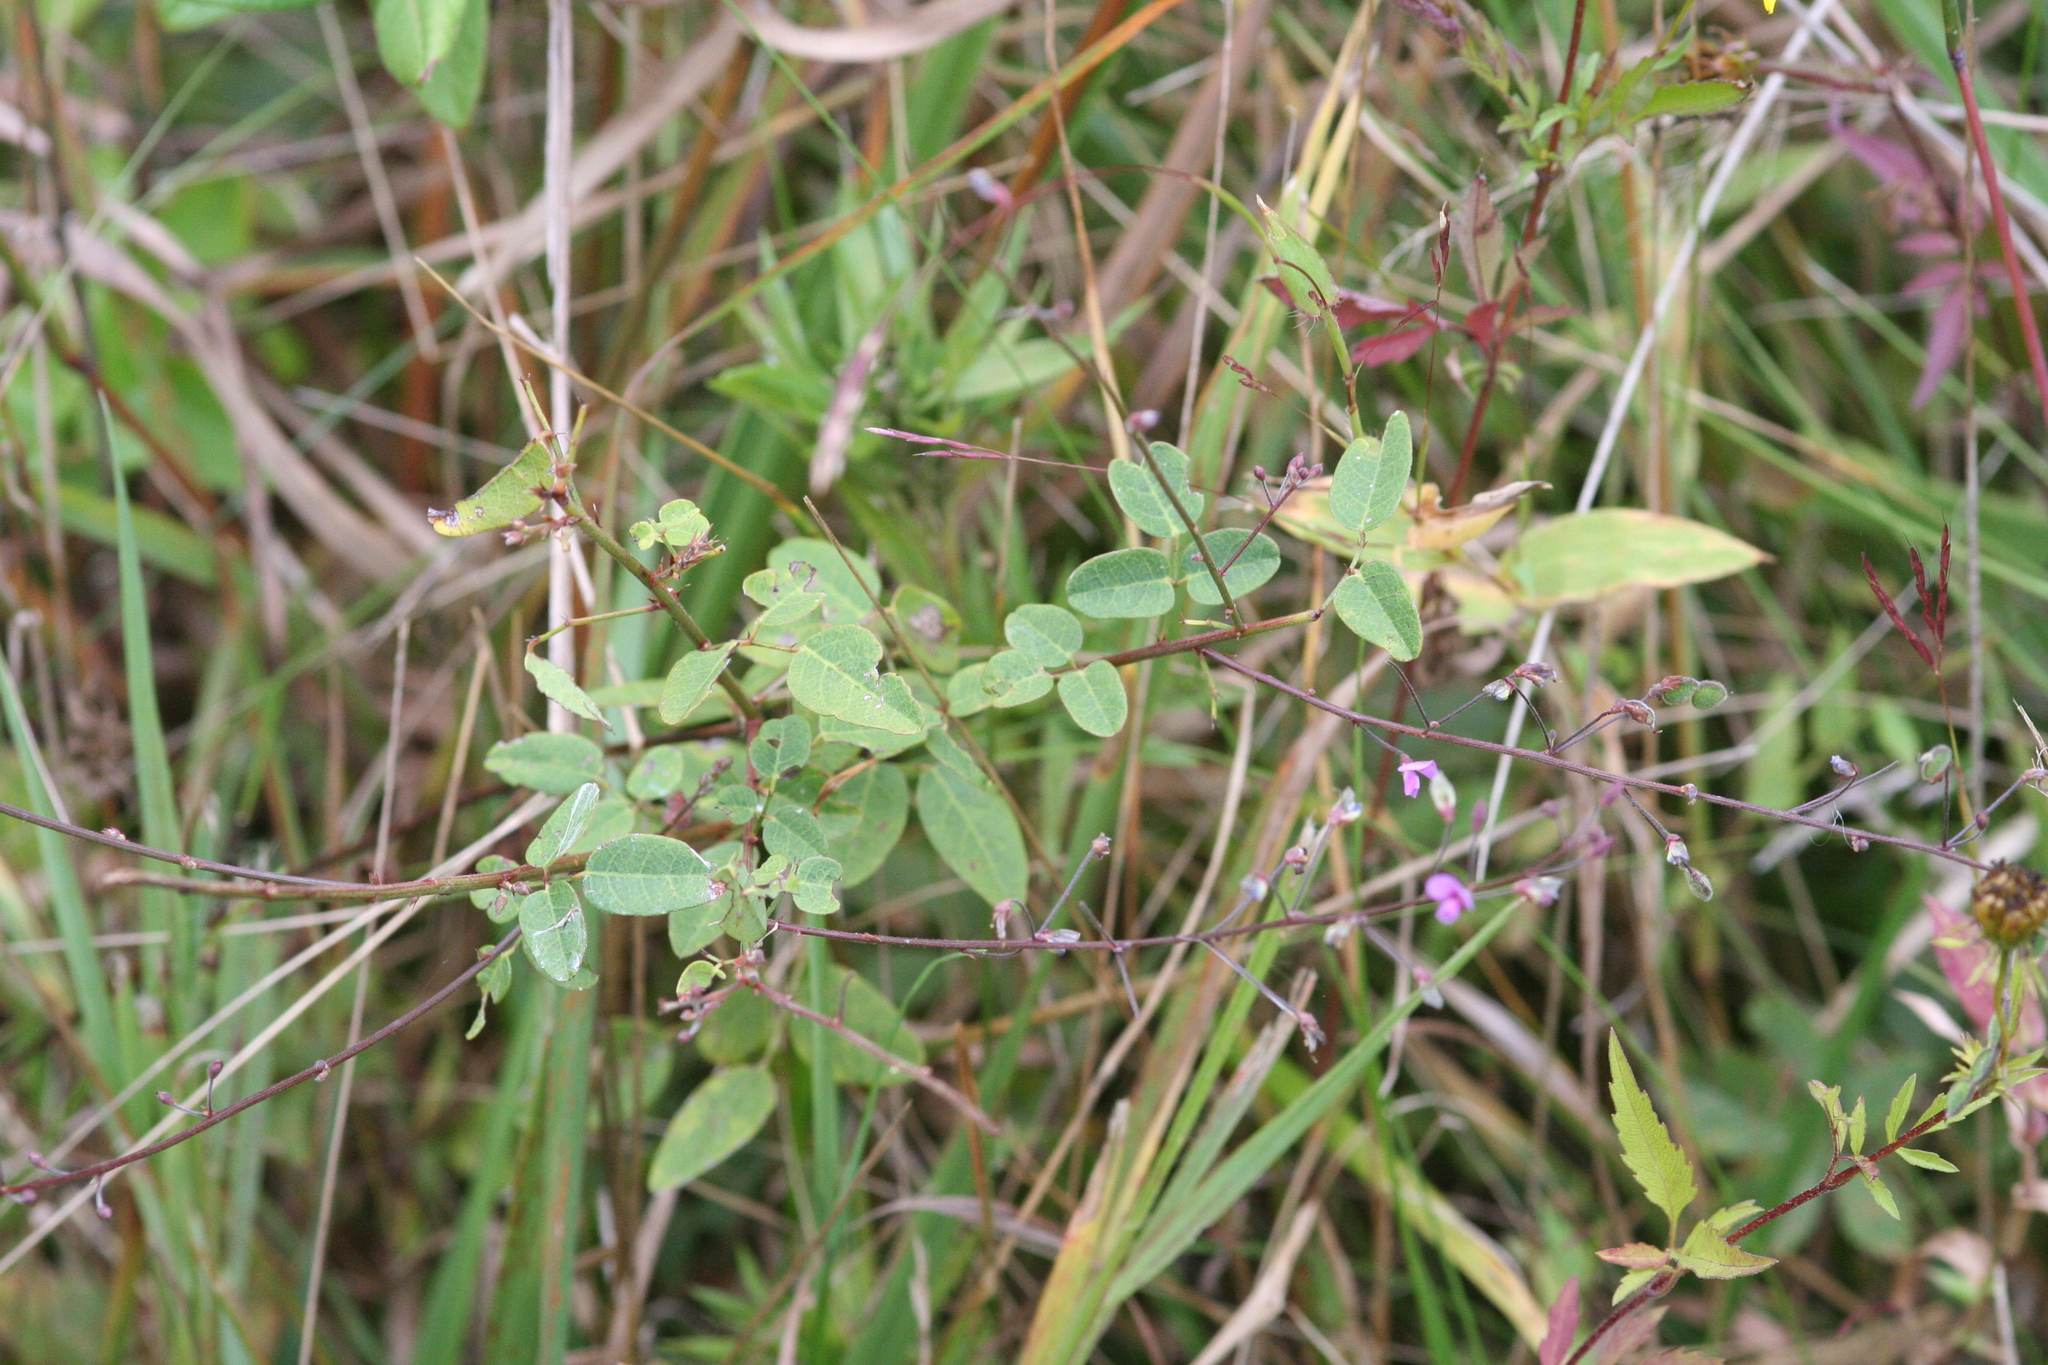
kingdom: Plantae
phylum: Tracheophyta
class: Magnoliopsida
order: Fabales
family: Fabaceae
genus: Desmodium
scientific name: Desmodium marilandicum
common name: Maryland tick-trefoil
